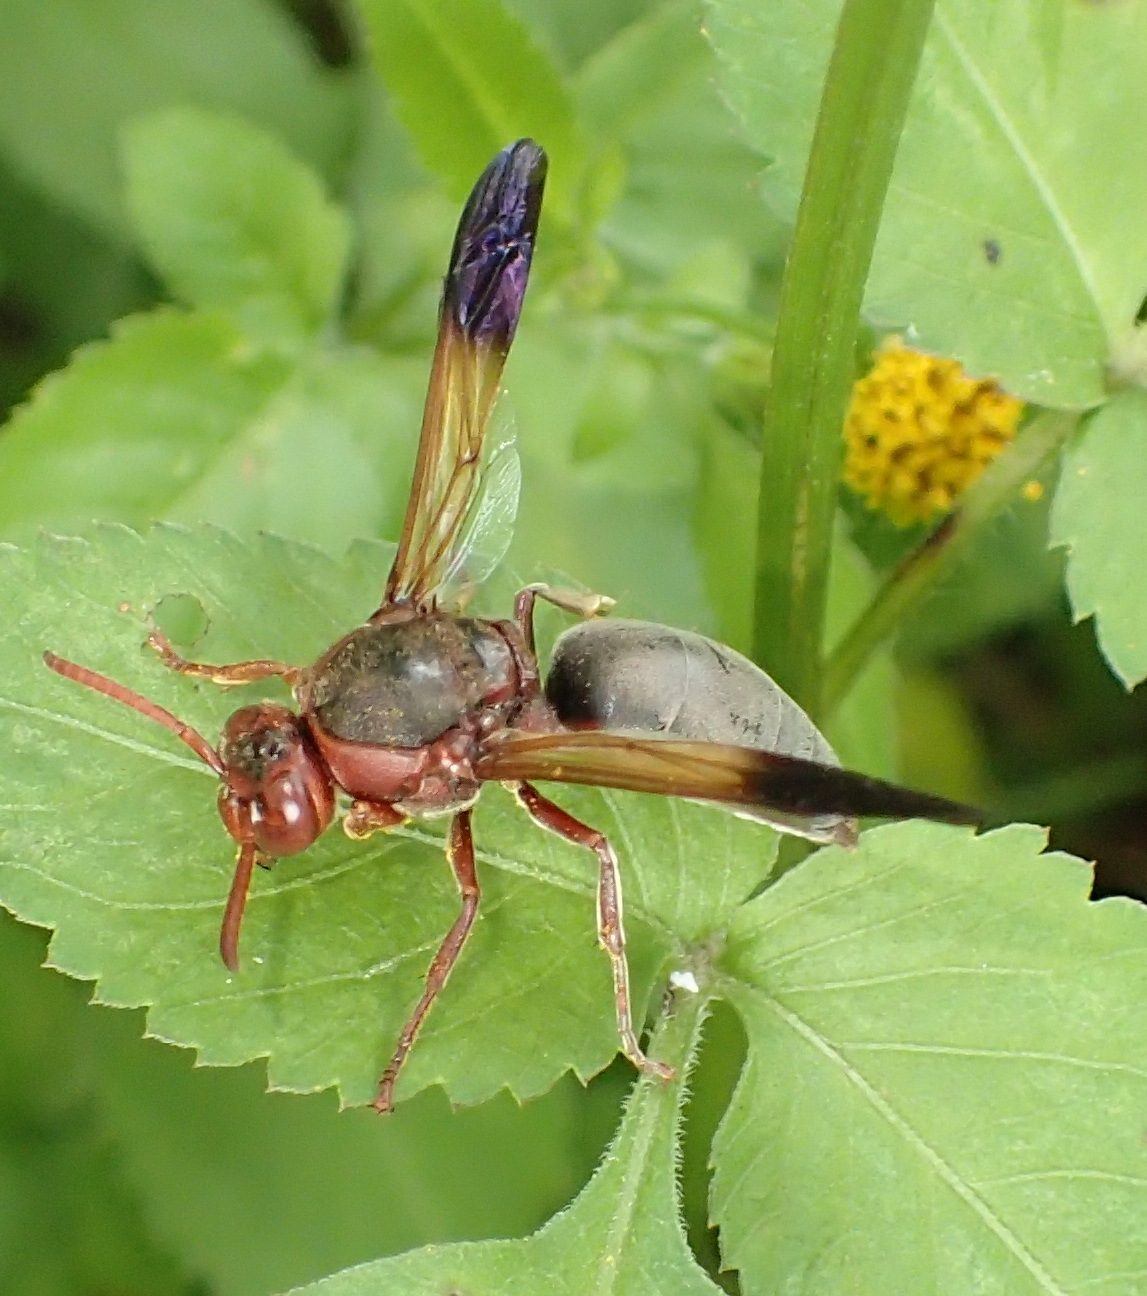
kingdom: Animalia
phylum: Arthropoda
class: Insecta
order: Hymenoptera
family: Eumenidae
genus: Rhynchium
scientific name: Rhynchium
